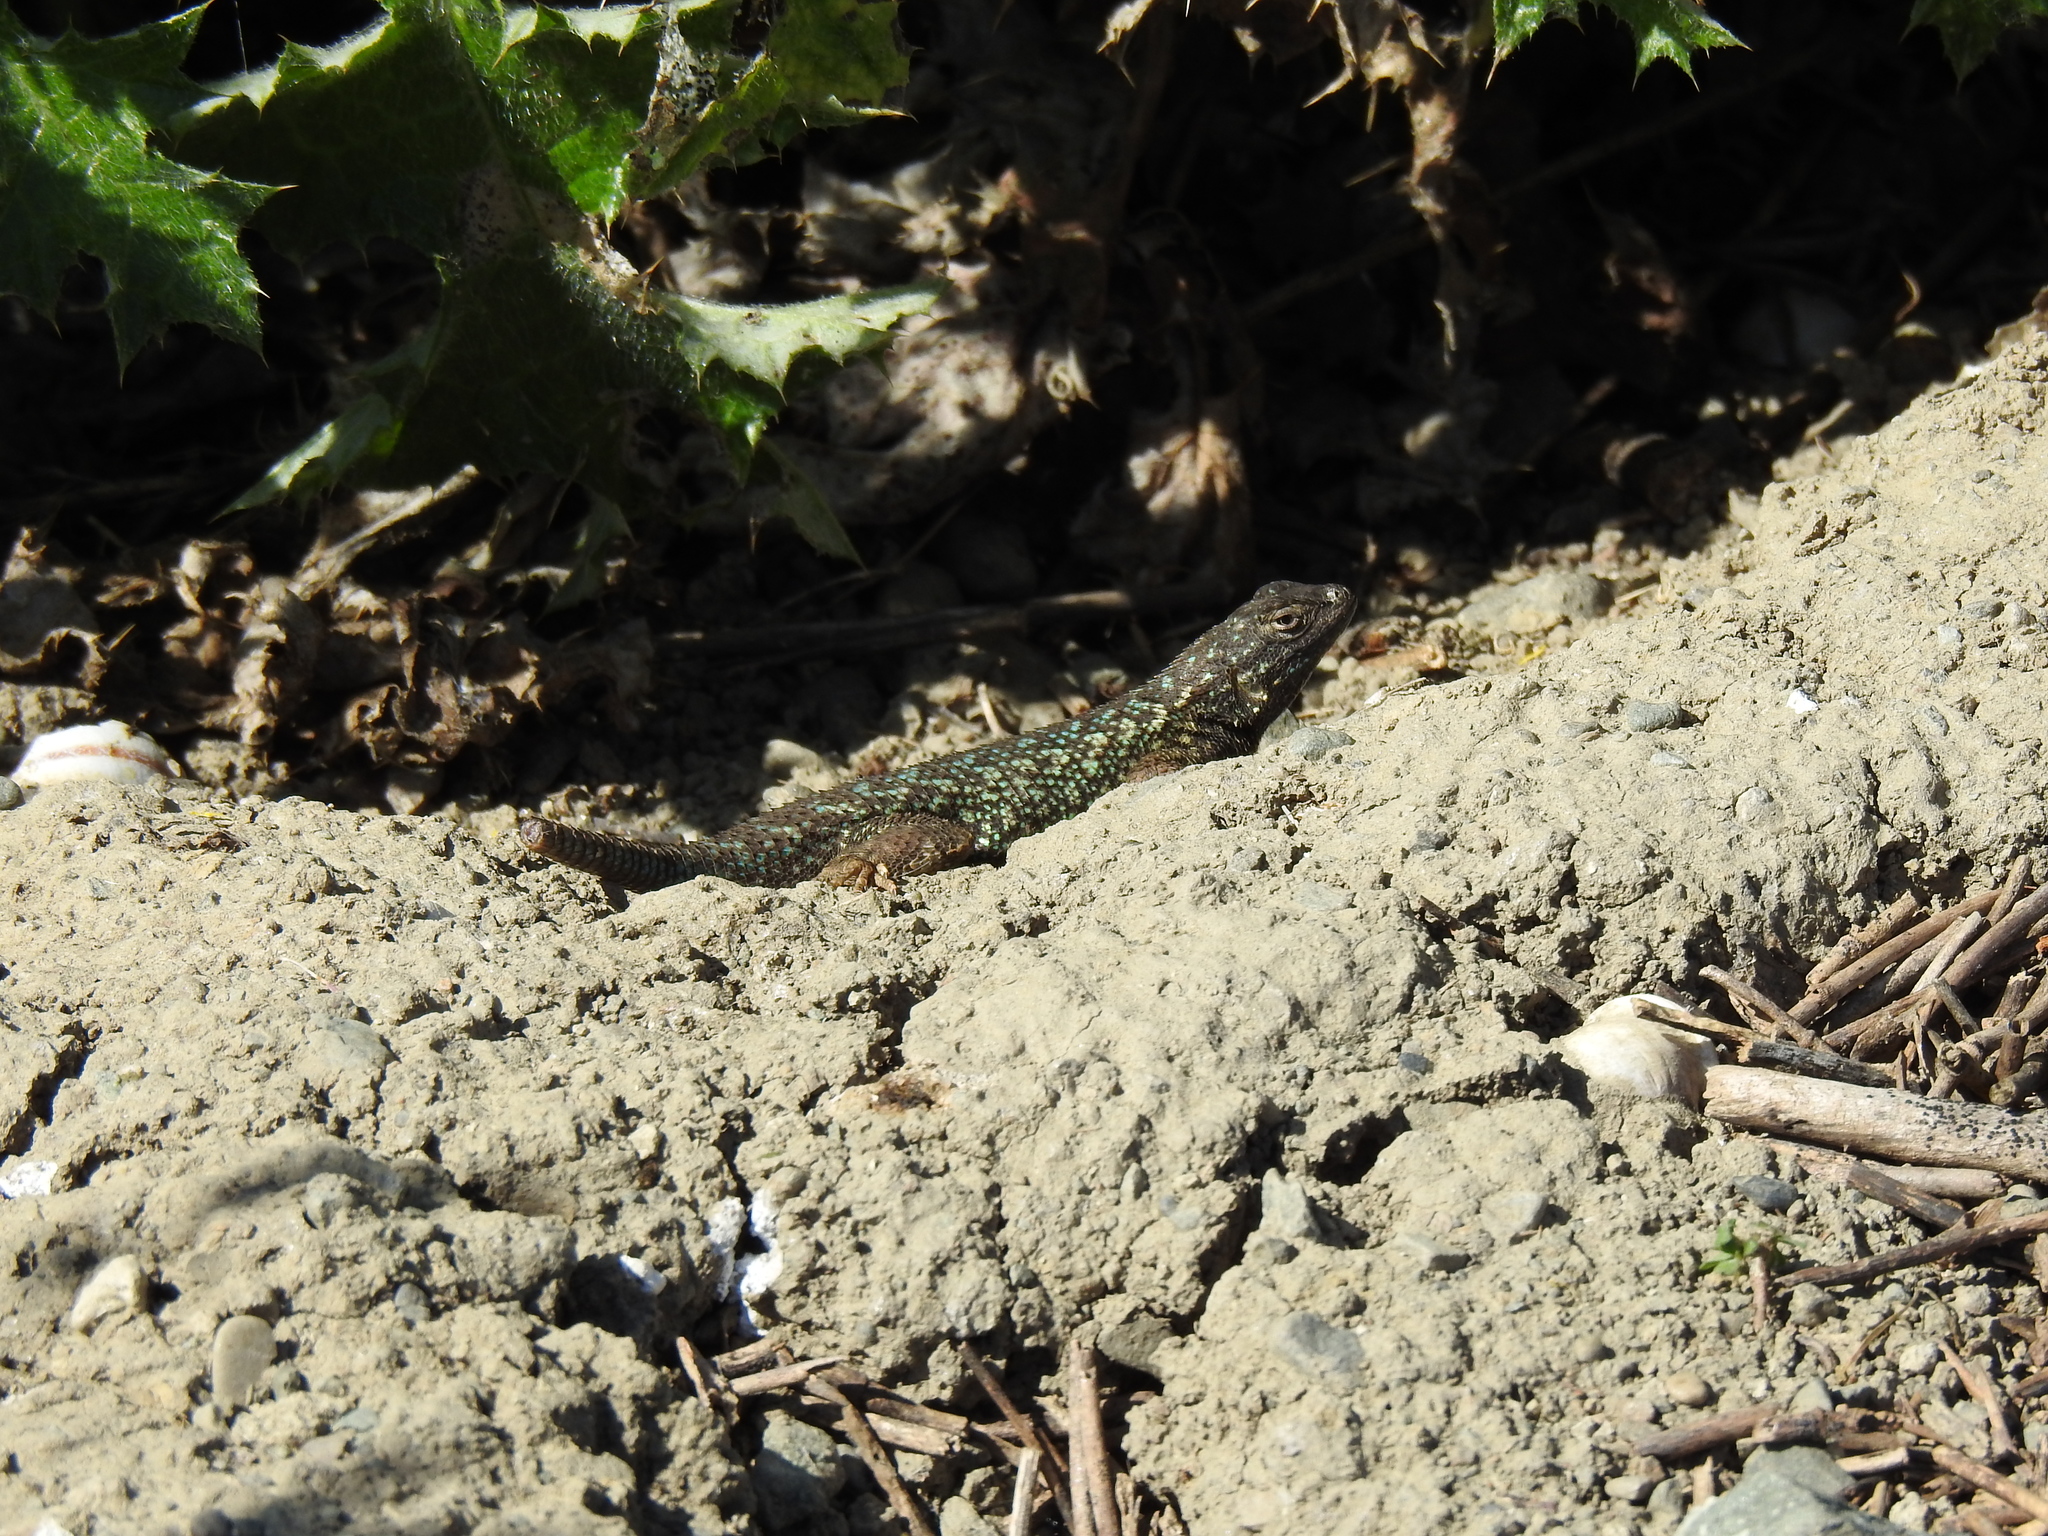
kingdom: Animalia
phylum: Chordata
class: Squamata
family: Phrynosomatidae
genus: Sceloporus
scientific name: Sceloporus occidentalis
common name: Western fence lizard
